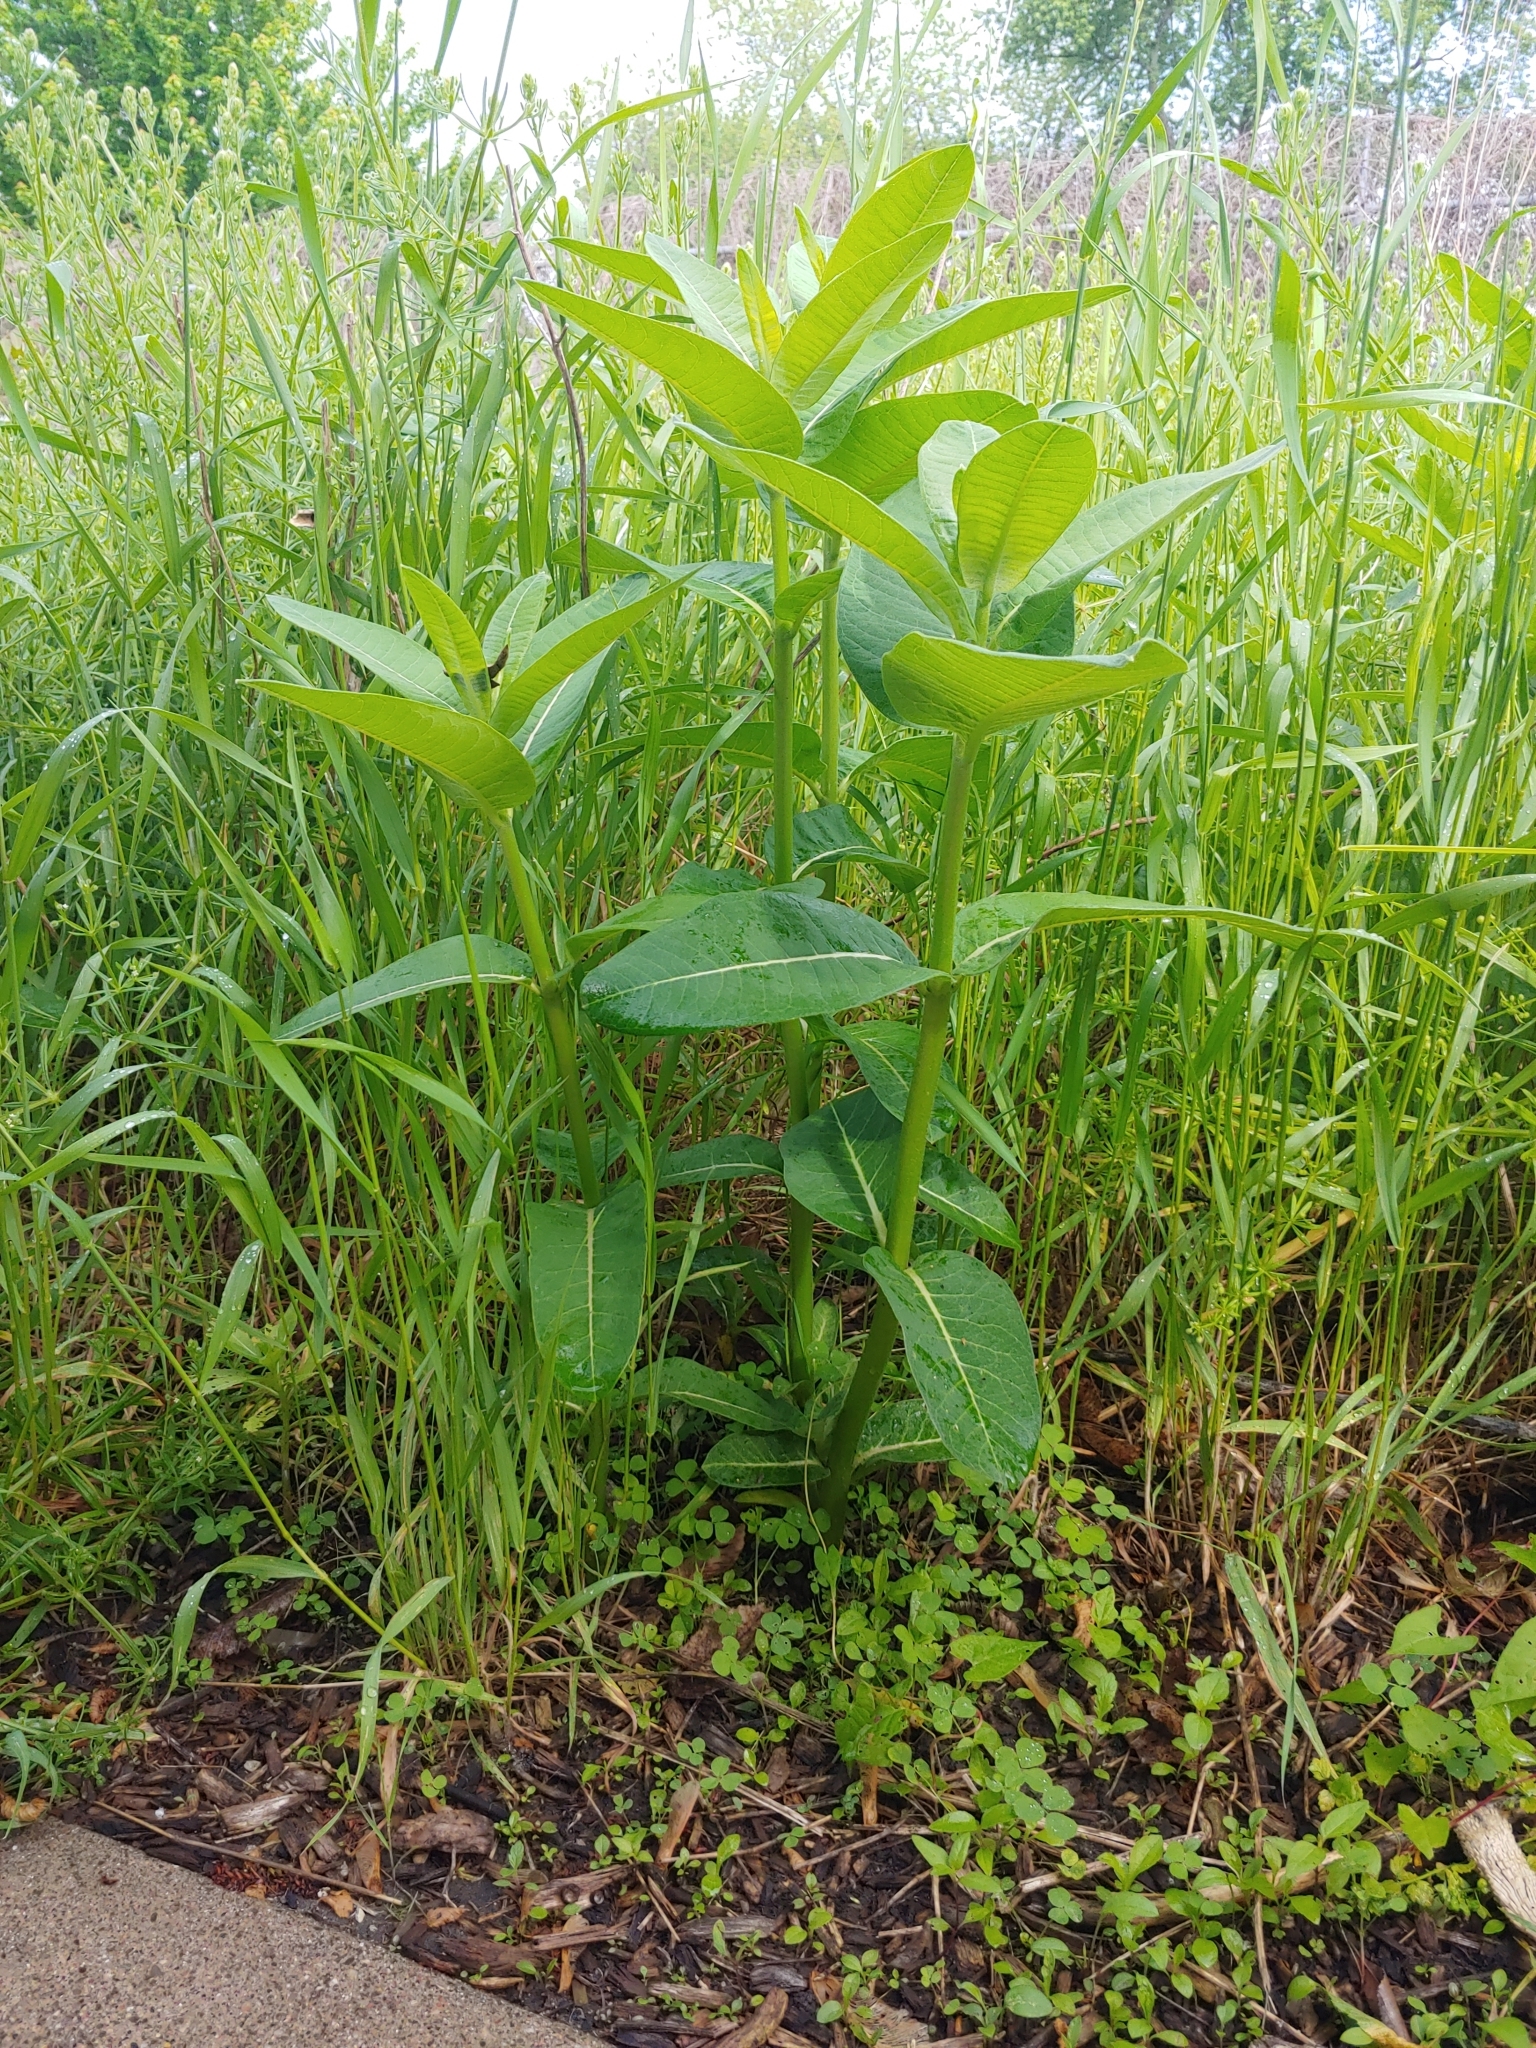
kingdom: Plantae
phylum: Tracheophyta
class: Magnoliopsida
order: Gentianales
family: Apocynaceae
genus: Asclepias
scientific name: Asclepias syriaca
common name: Common milkweed
